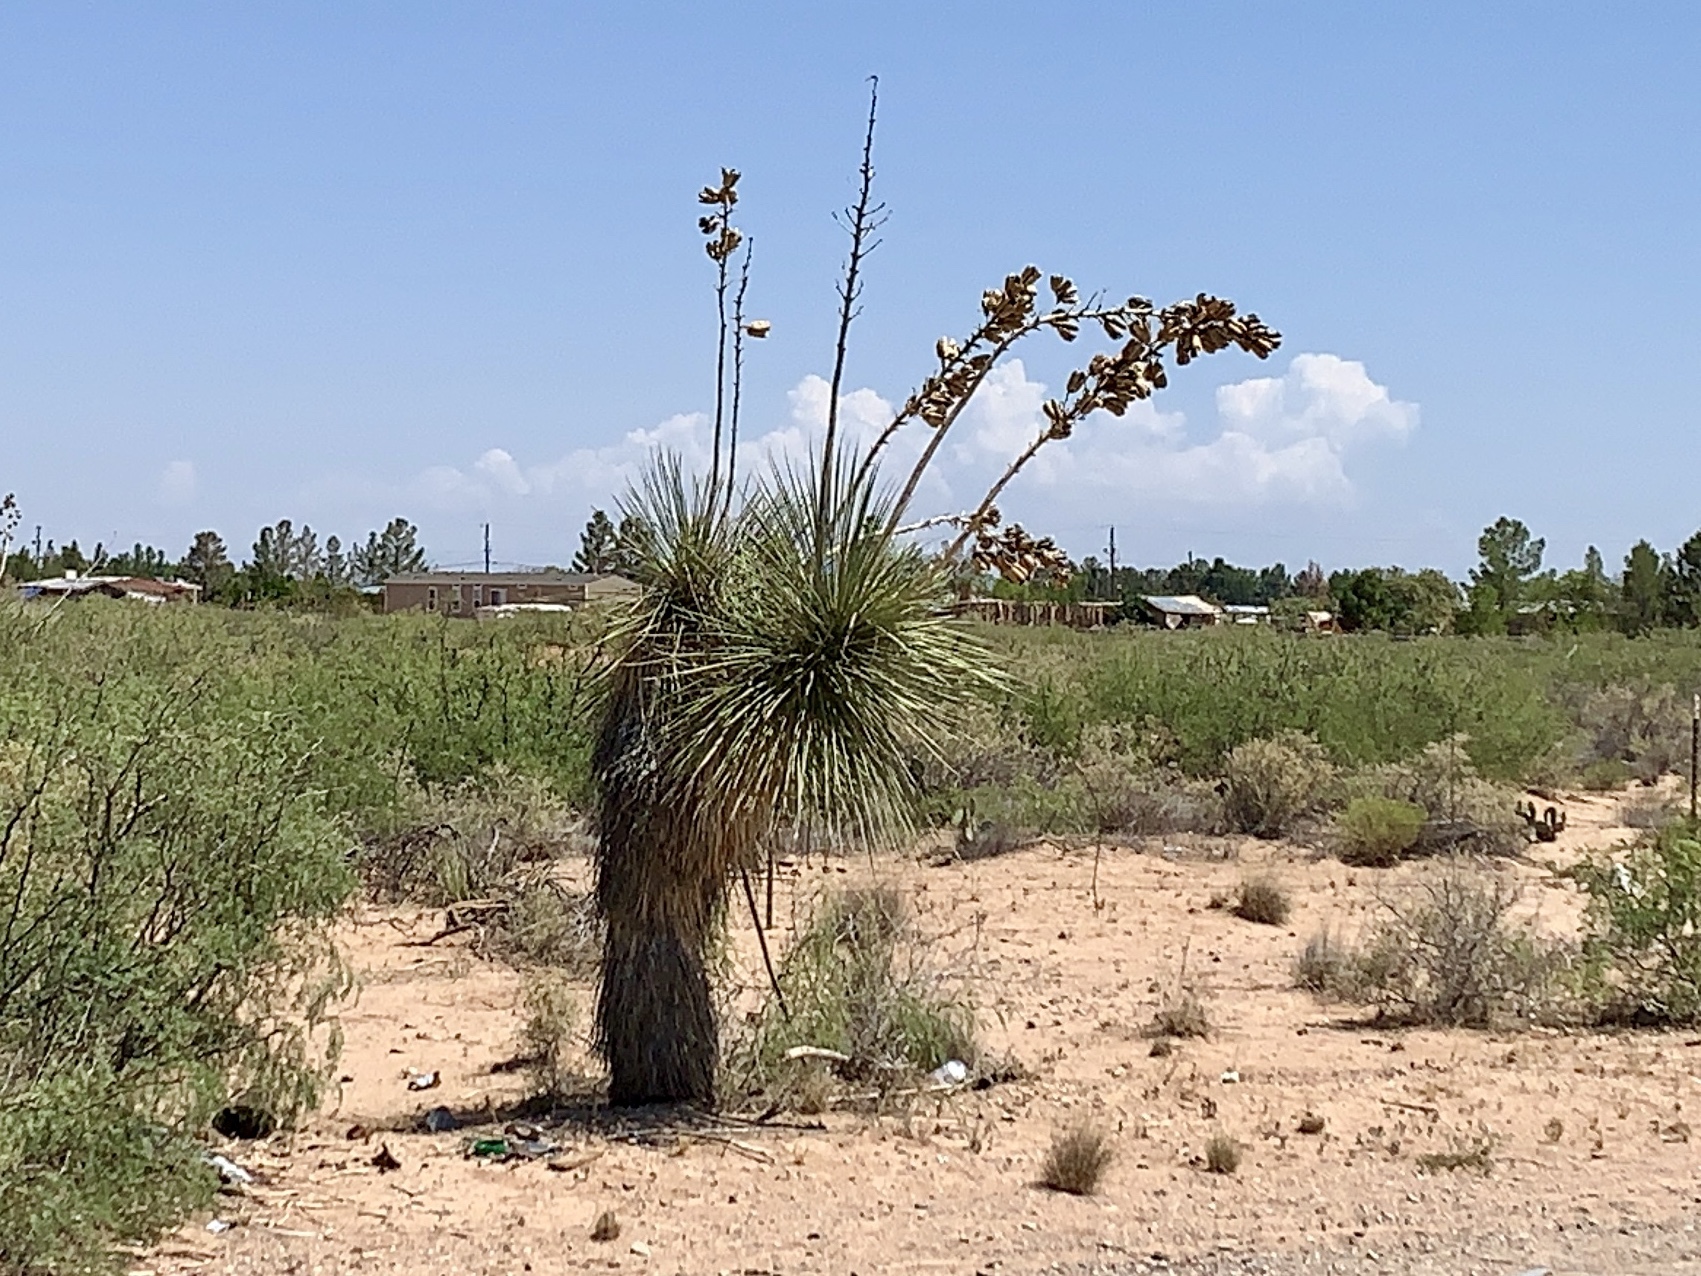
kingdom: Plantae
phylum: Tracheophyta
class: Liliopsida
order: Asparagales
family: Asparagaceae
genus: Yucca
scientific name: Yucca elata
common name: Palmella
